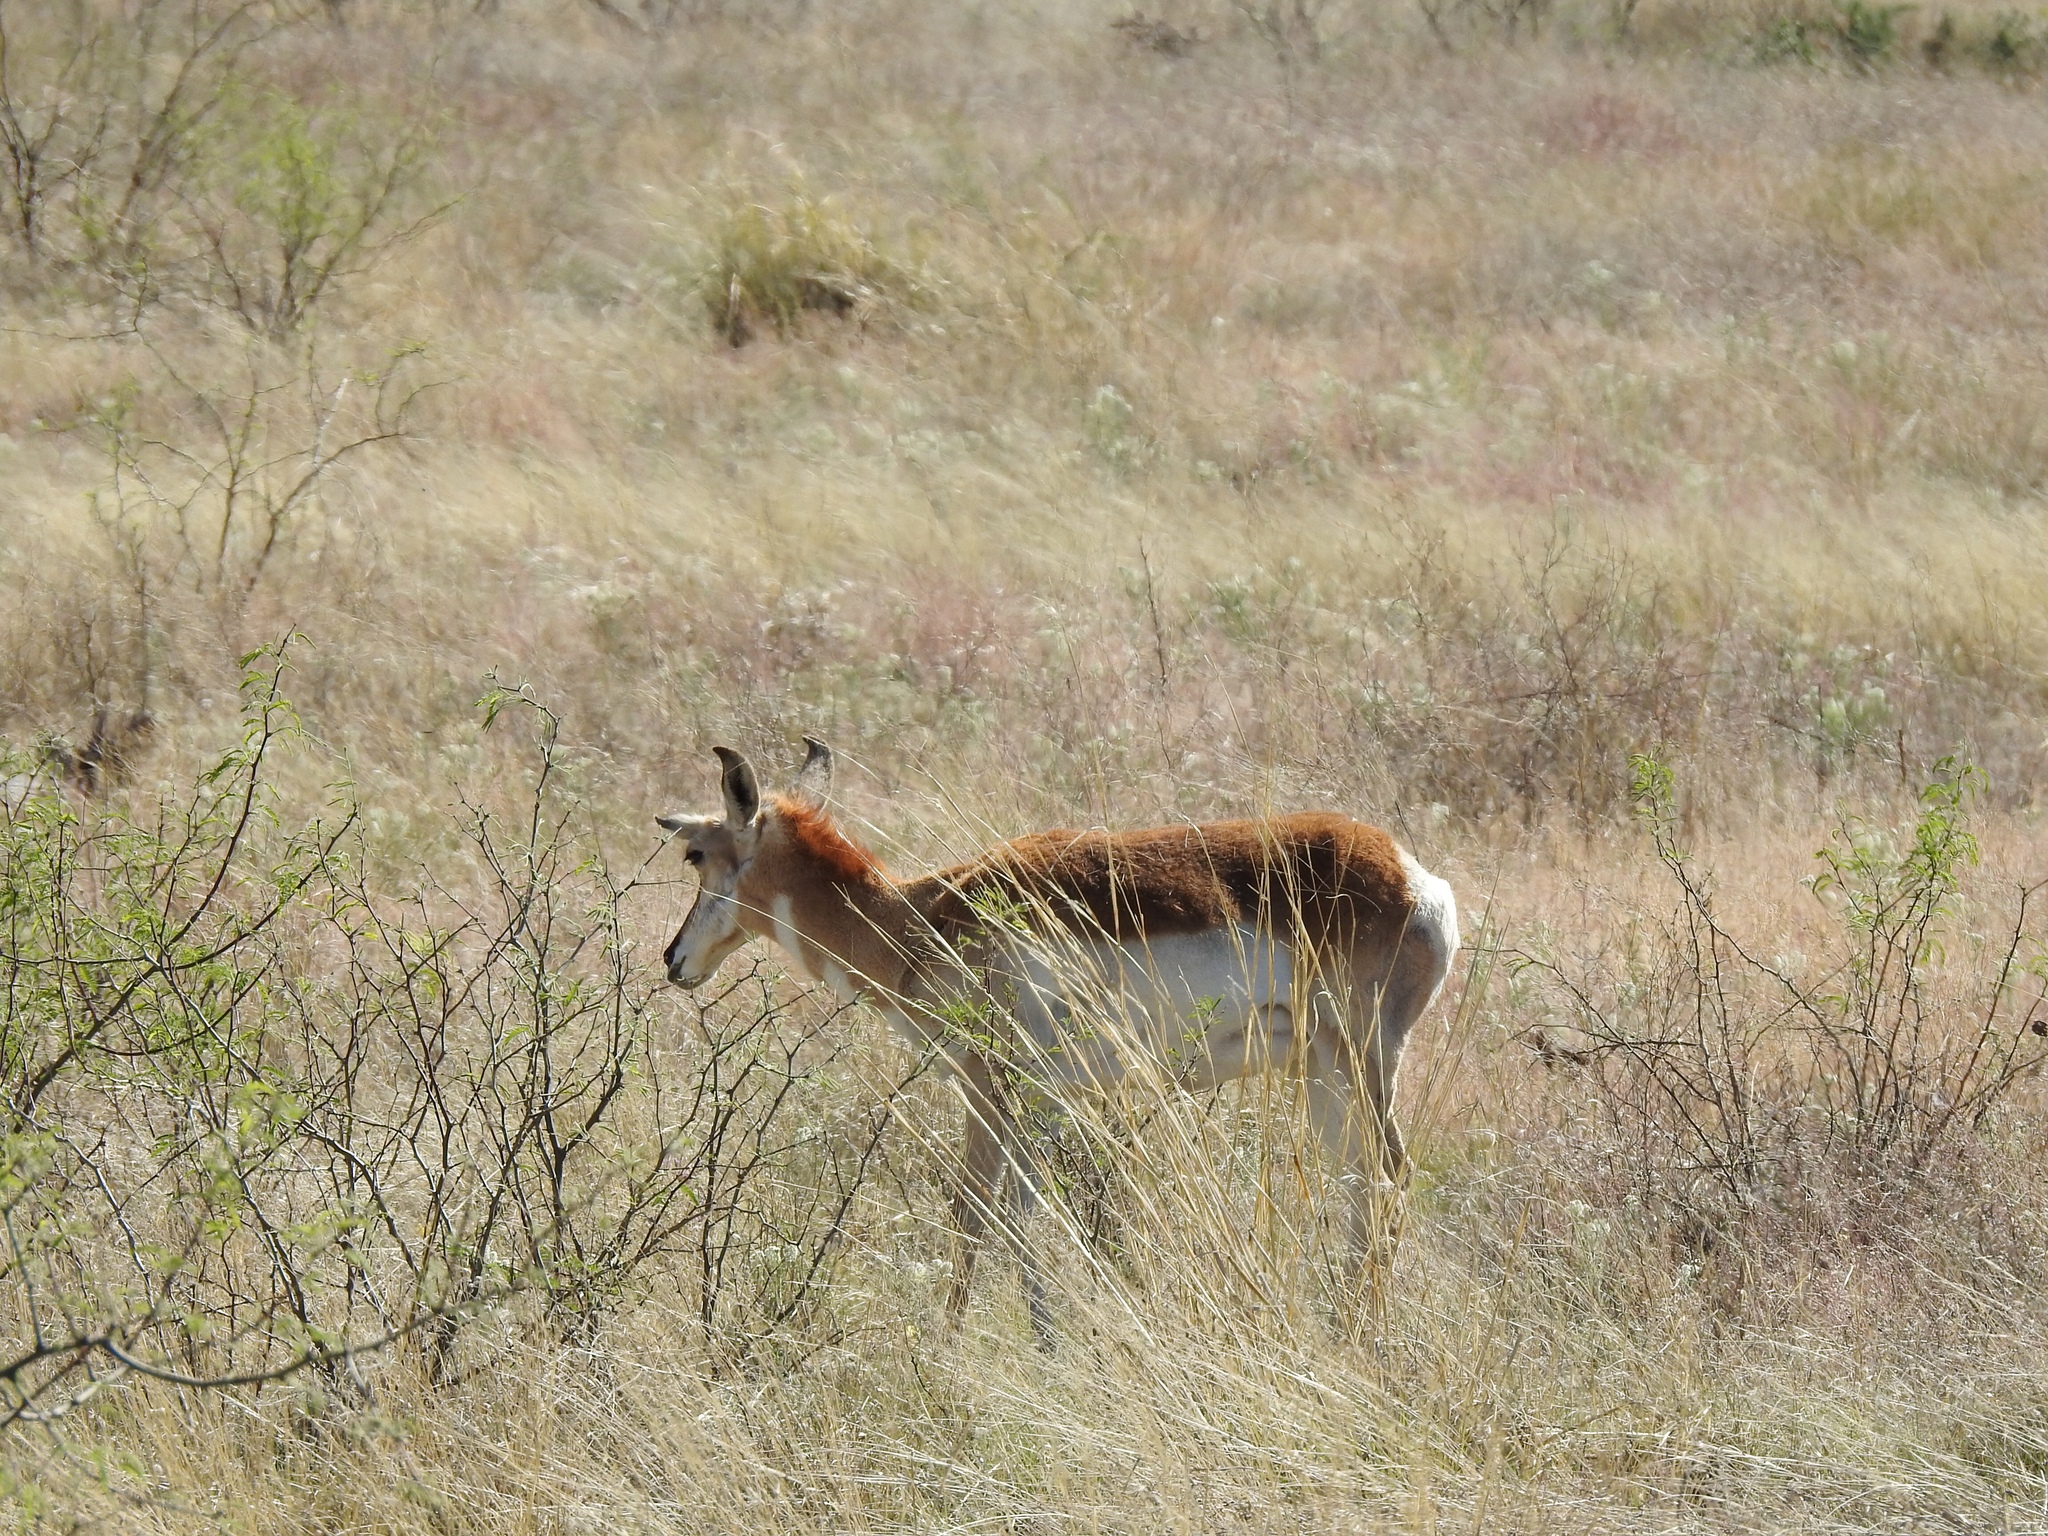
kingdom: Animalia
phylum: Chordata
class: Mammalia
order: Artiodactyla
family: Antilocapridae
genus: Antilocapra
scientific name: Antilocapra americana
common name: Pronghorn
